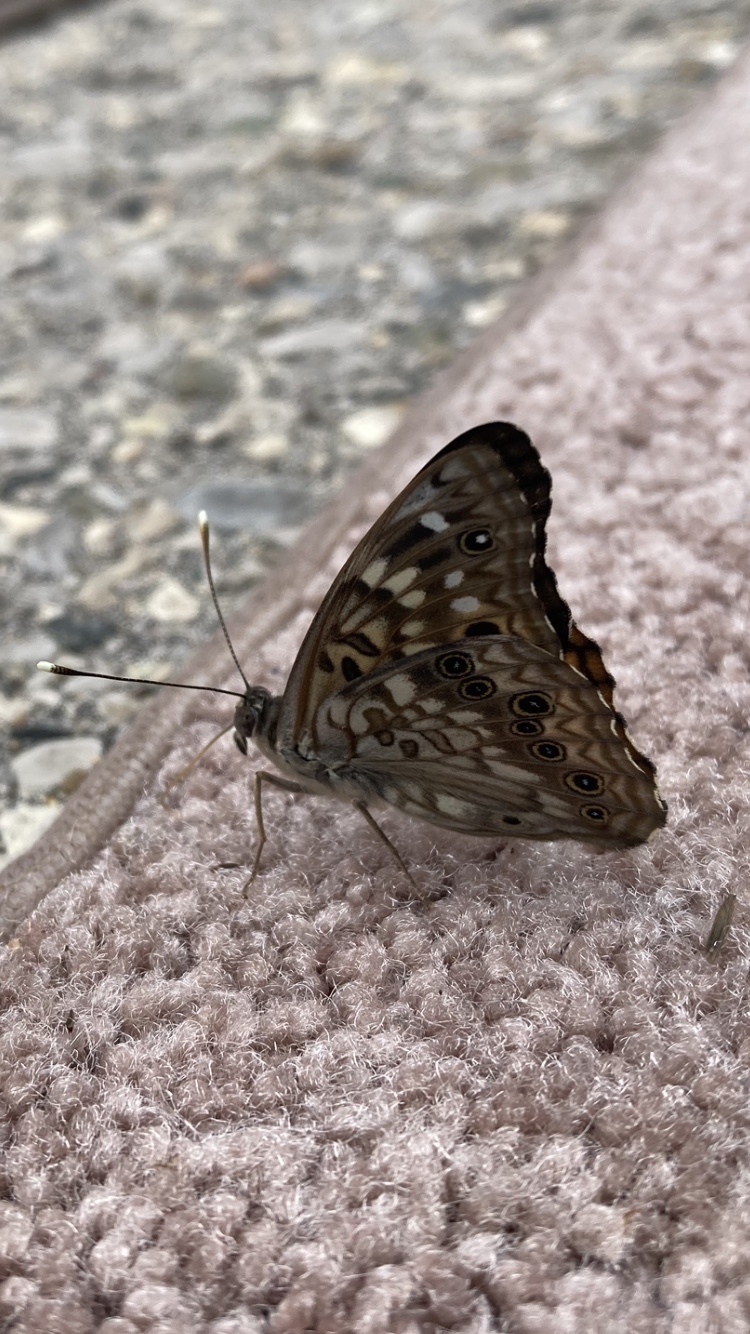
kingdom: Animalia
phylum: Arthropoda
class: Insecta
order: Lepidoptera
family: Nymphalidae
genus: Asterocampa
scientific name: Asterocampa celtis
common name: Hackberry emperor
